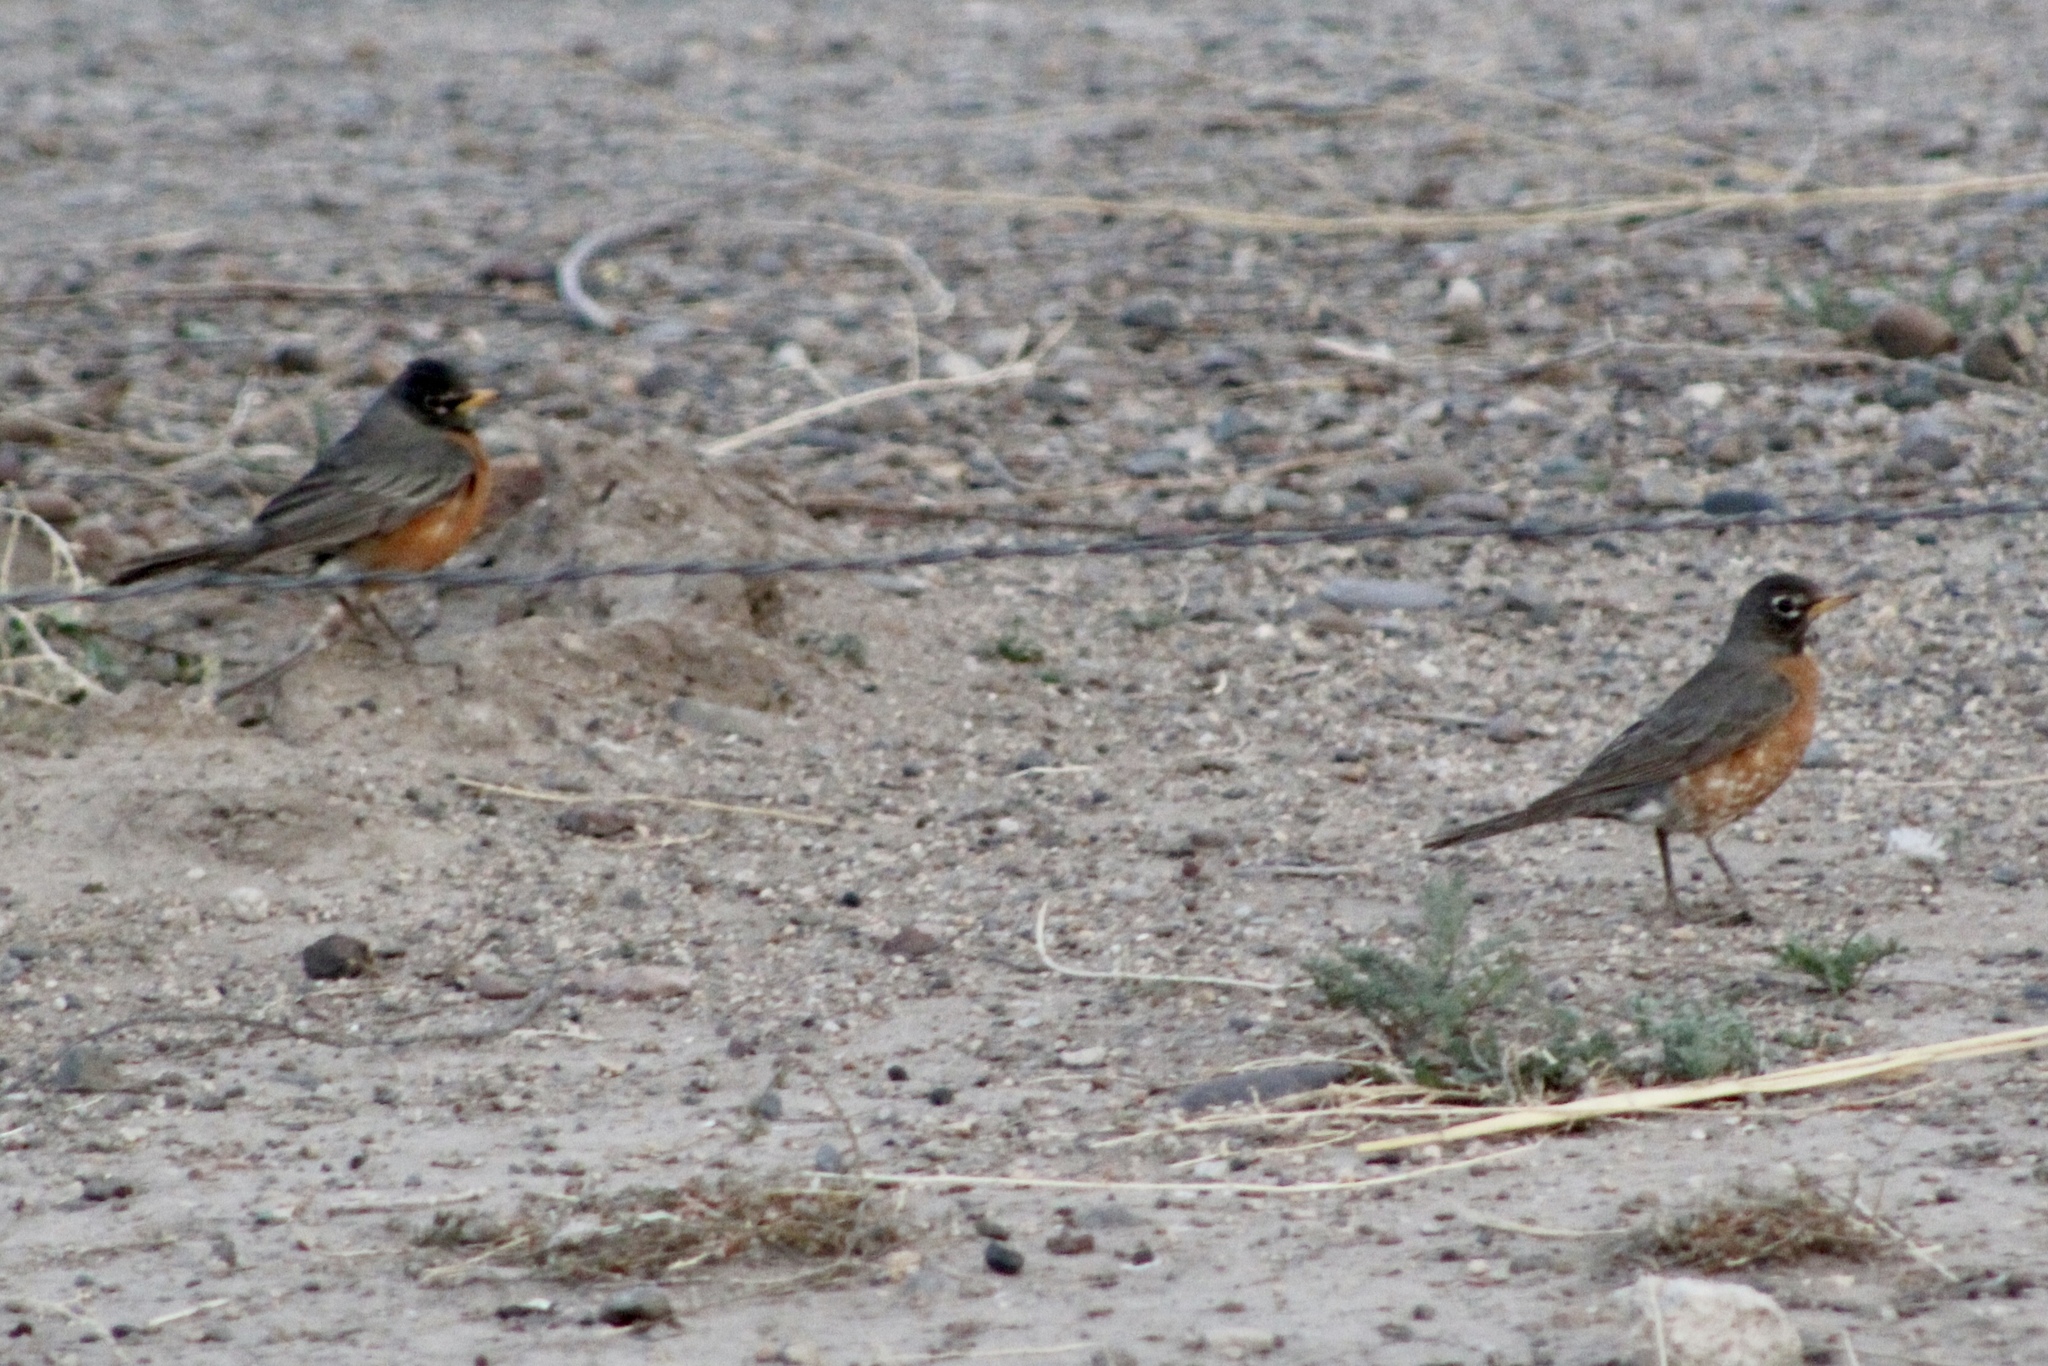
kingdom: Animalia
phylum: Chordata
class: Aves
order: Passeriformes
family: Turdidae
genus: Turdus
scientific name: Turdus migratorius
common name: American robin
